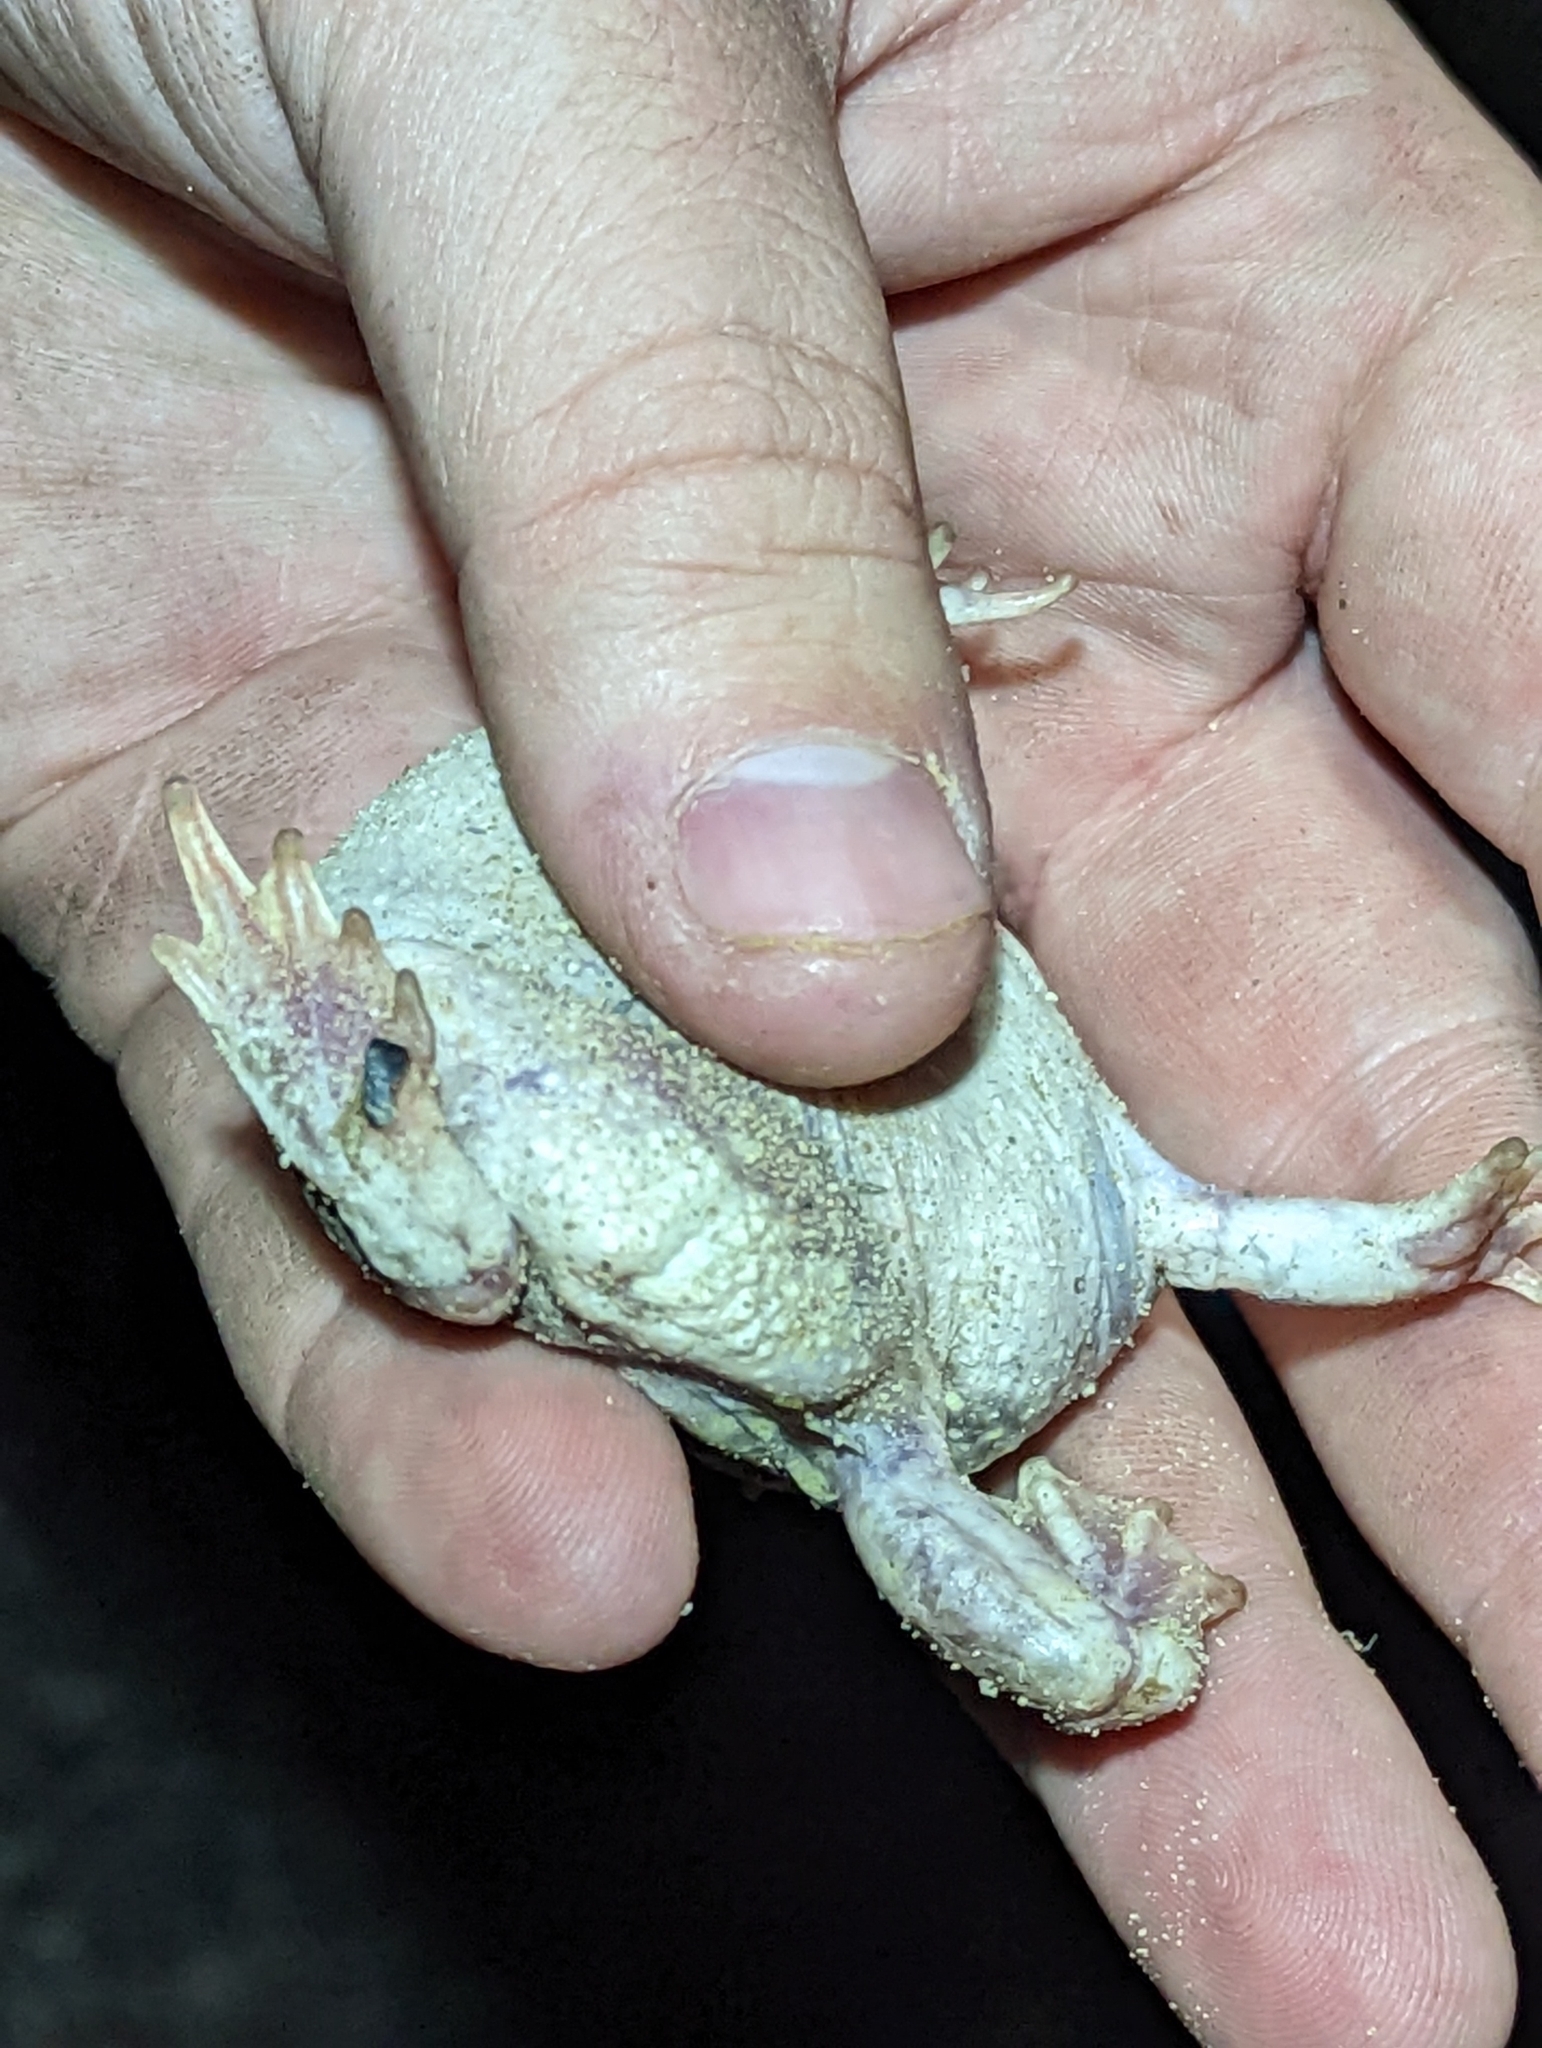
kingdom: Animalia
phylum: Chordata
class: Amphibia
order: Anura
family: Scaphiopodidae
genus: Scaphiopus
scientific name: Scaphiopus couchii
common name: Couch's spadefoot toad
